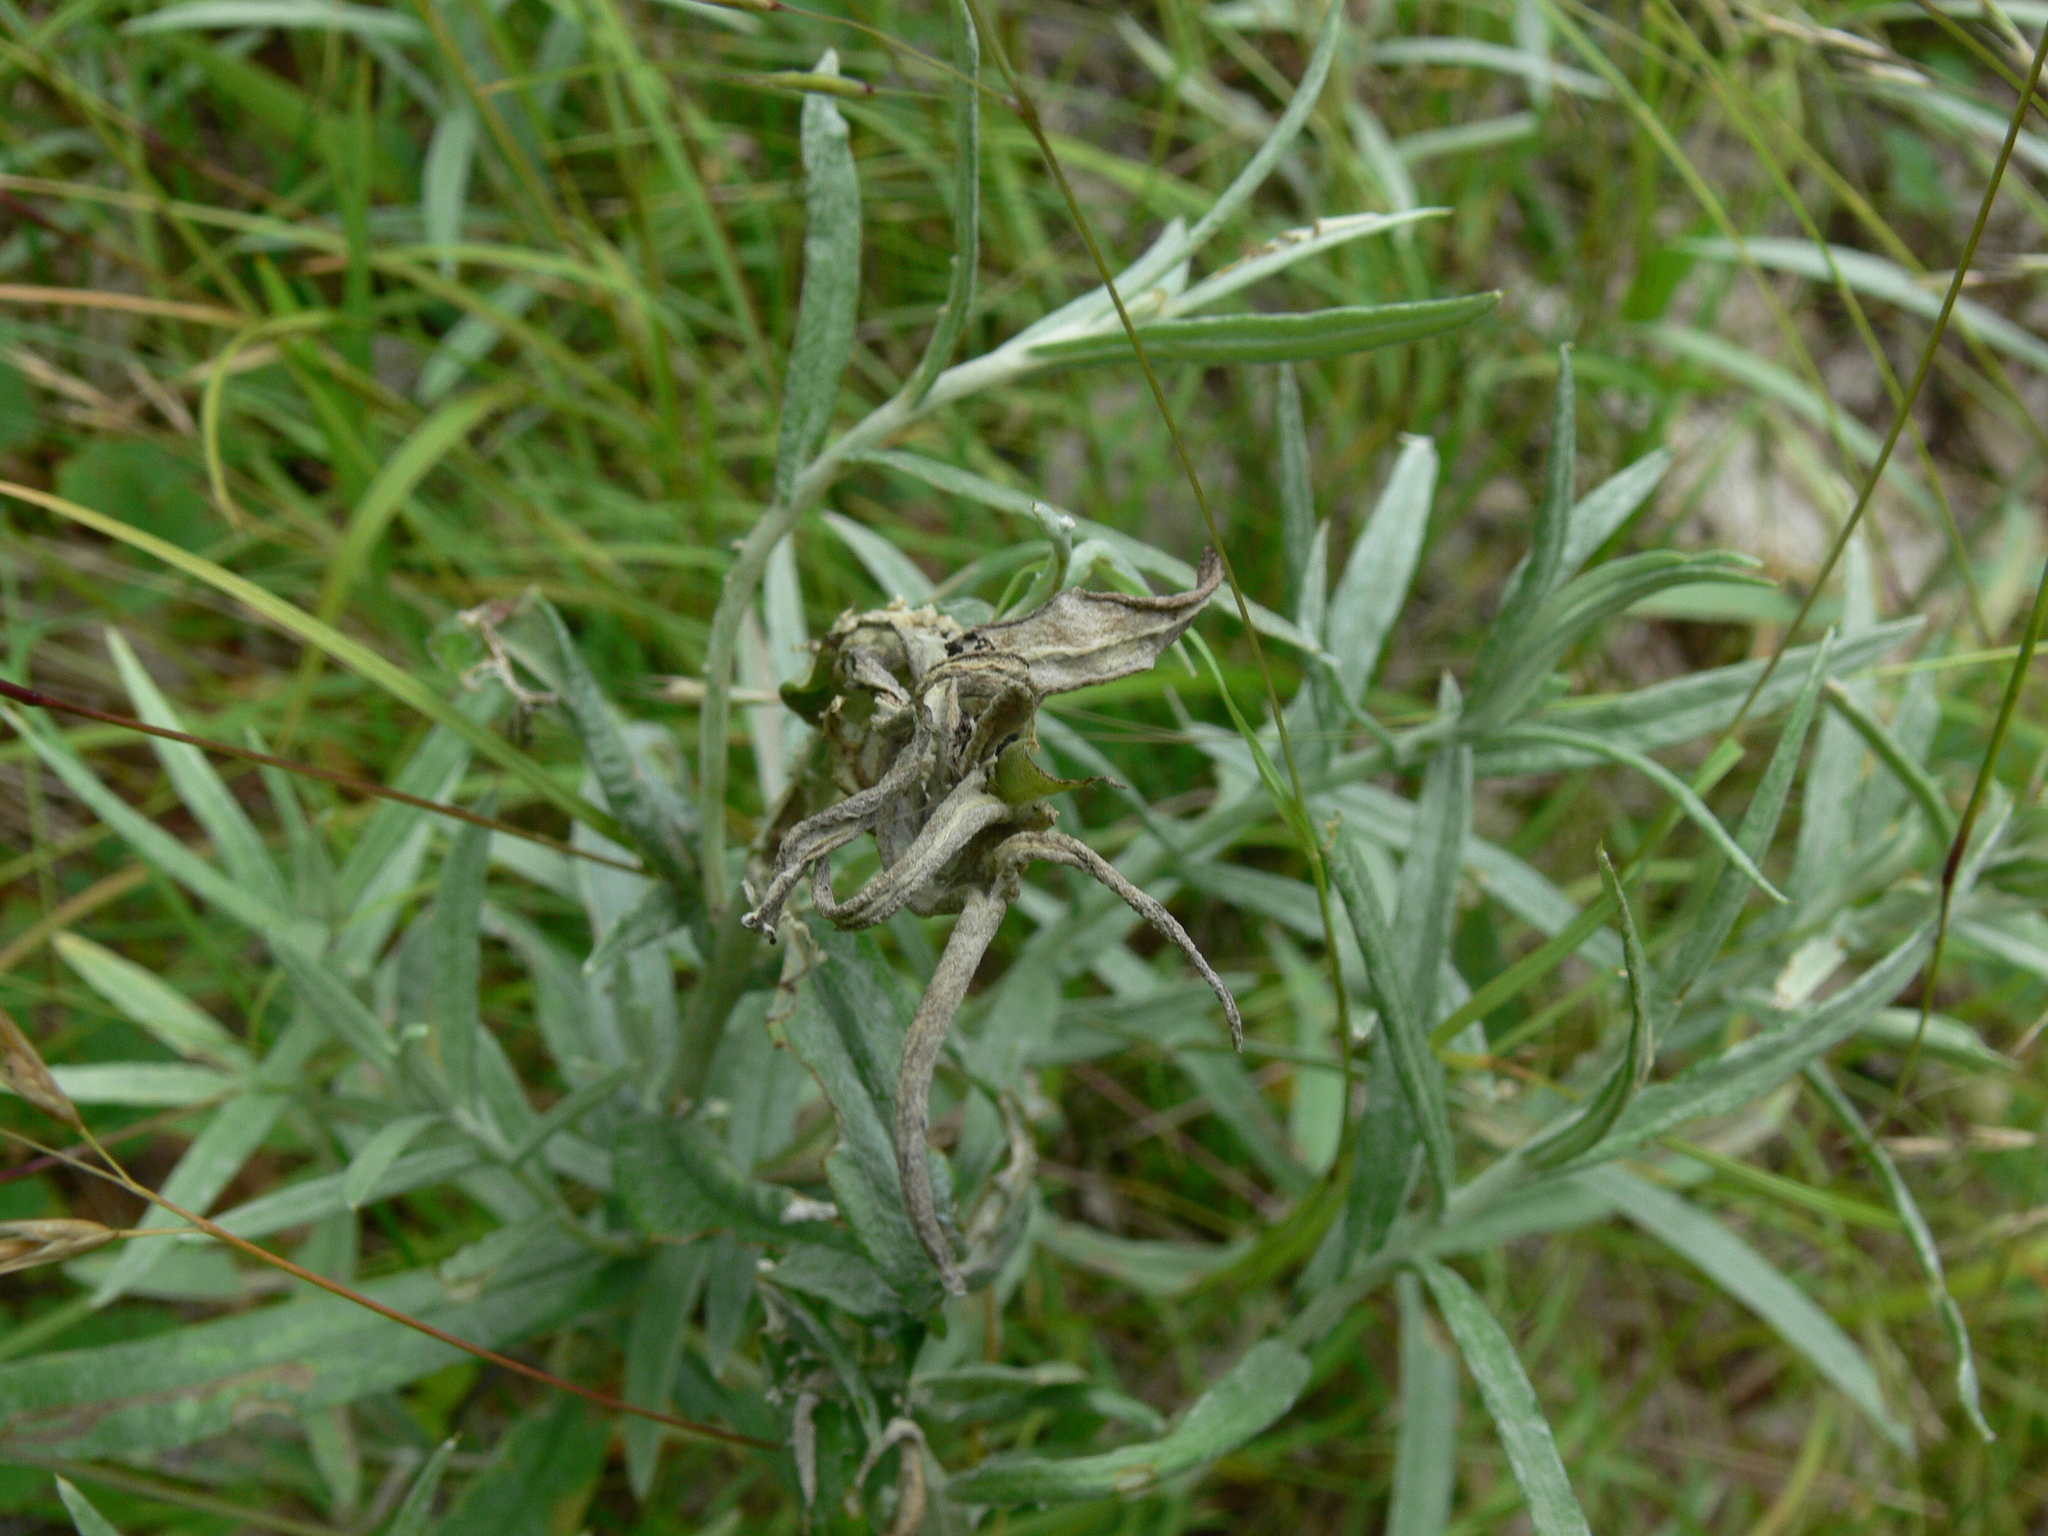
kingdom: Animalia
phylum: Arthropoda
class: Insecta
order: Lepidoptera
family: Nymphalidae
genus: Vanessa
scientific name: Vanessa virginiensis
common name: American lady
